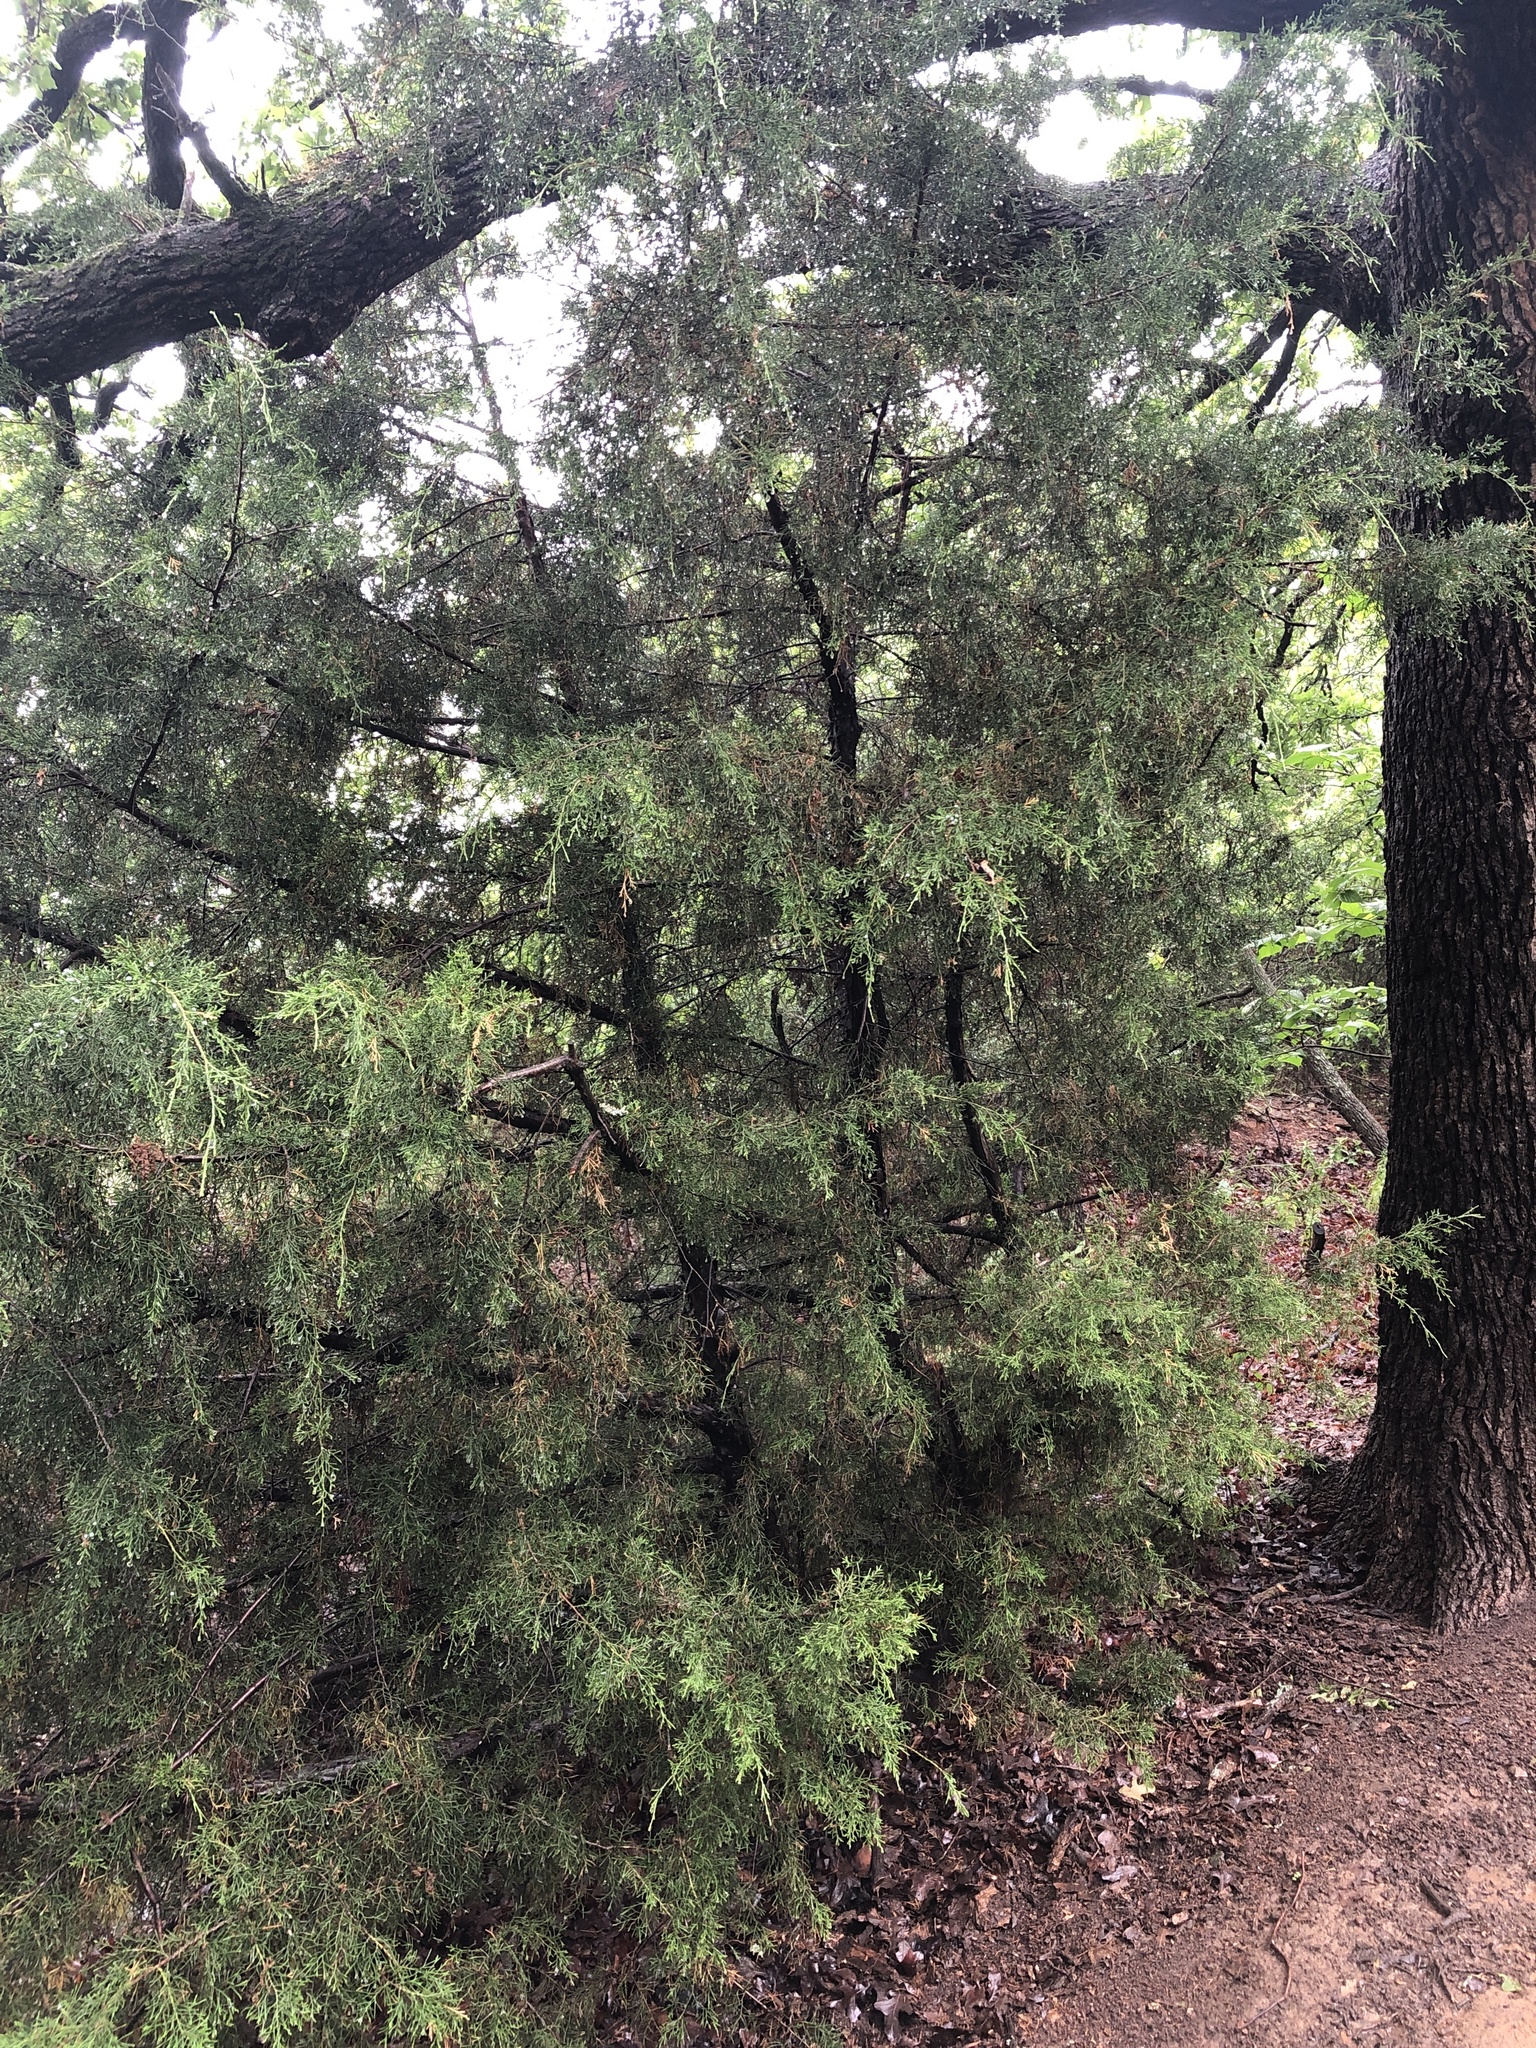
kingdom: Plantae
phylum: Tracheophyta
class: Pinopsida
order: Pinales
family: Cupressaceae
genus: Juniperus
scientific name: Juniperus virginiana
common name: Red juniper
